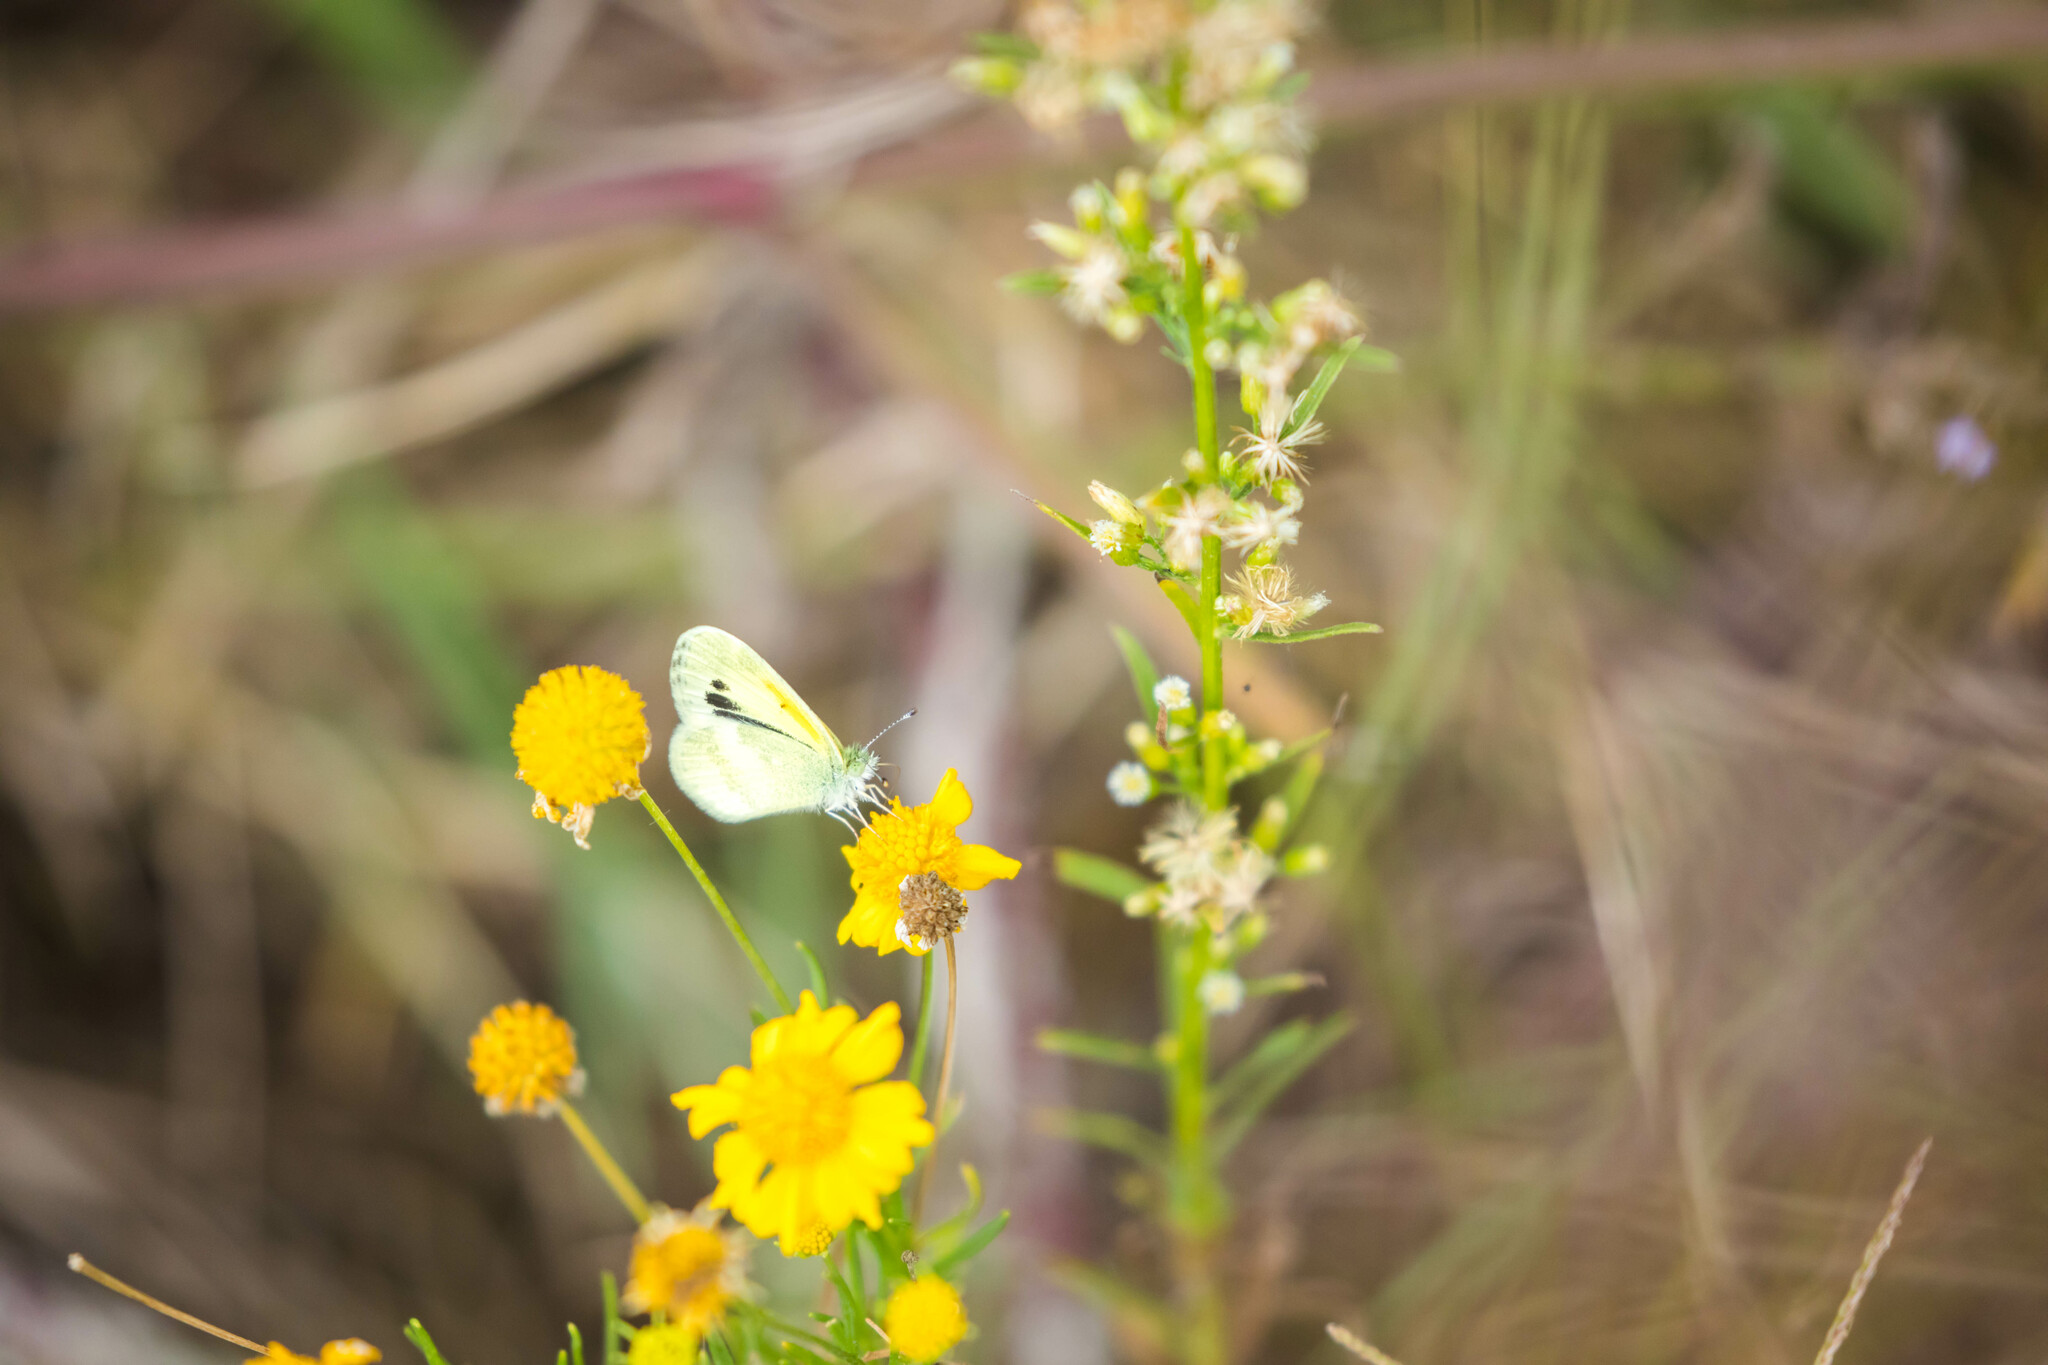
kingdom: Animalia
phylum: Arthropoda
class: Insecta
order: Lepidoptera
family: Pieridae
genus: Nathalis
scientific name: Nathalis iole
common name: Dainty sulphur
